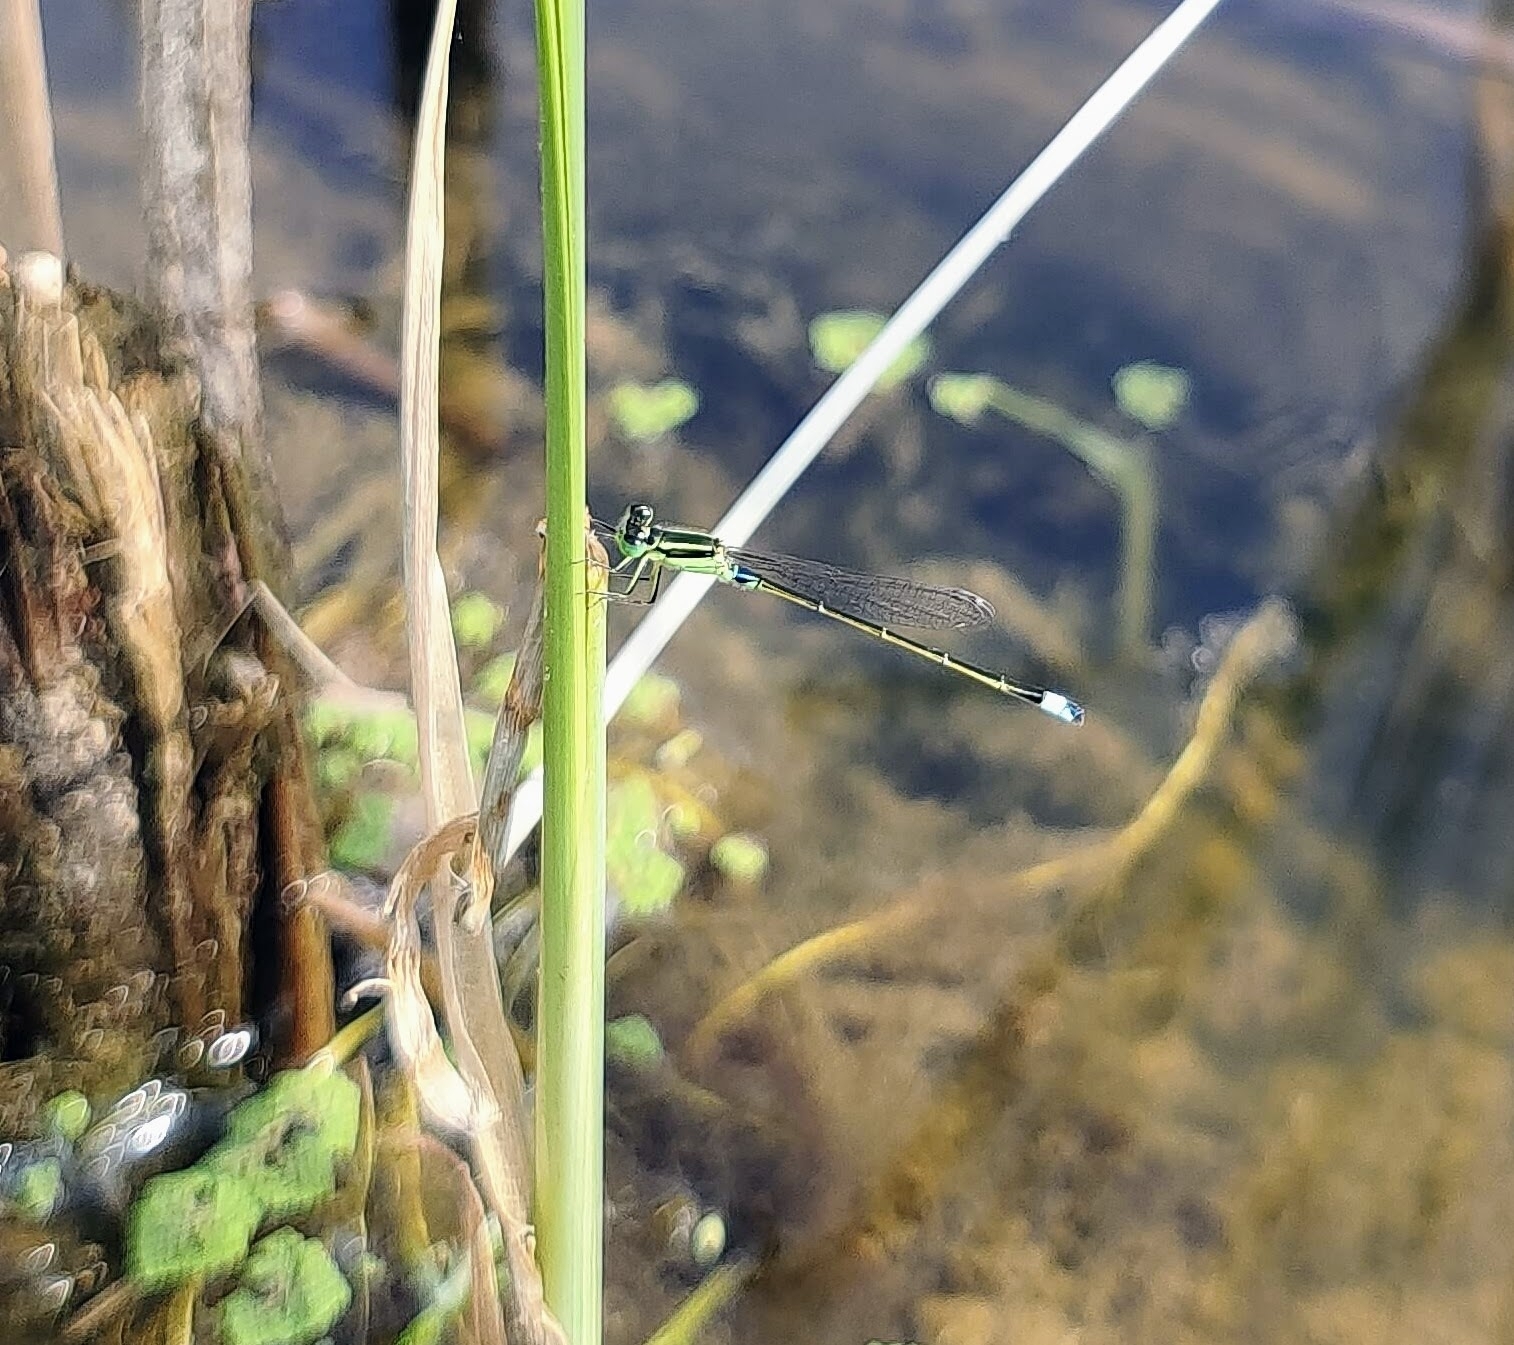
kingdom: Animalia
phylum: Arthropoda
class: Insecta
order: Odonata
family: Coenagrionidae
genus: Ischnura
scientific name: Ischnura senegalensis
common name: Tropical bluetail
